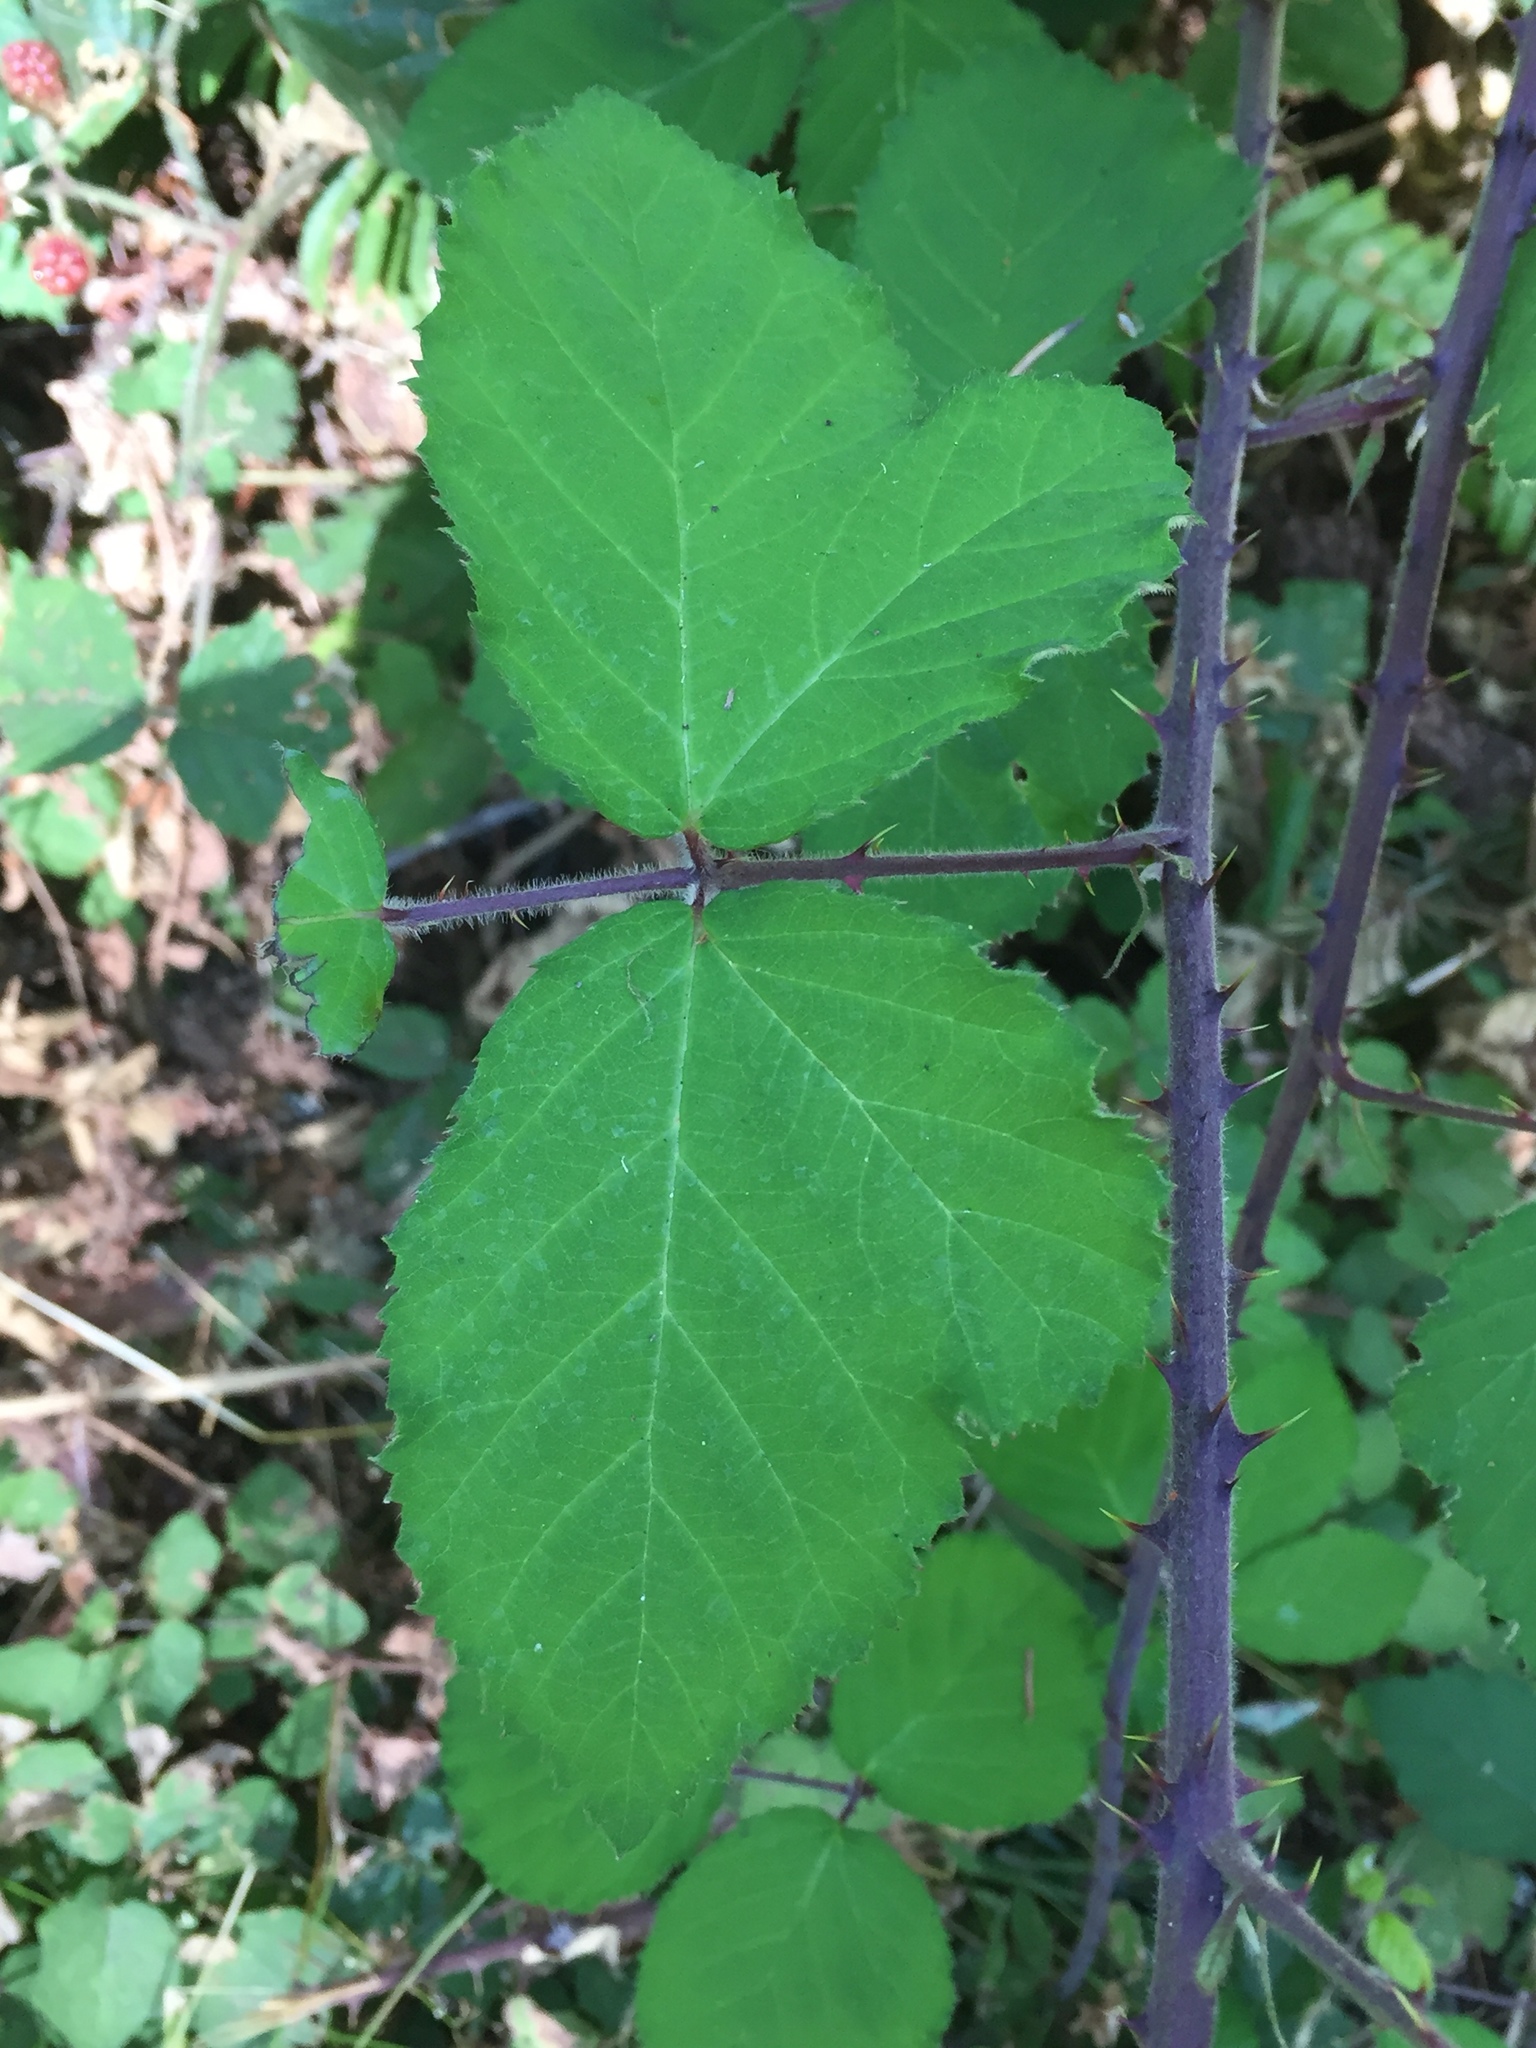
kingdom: Plantae
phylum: Tracheophyta
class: Magnoliopsida
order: Rosales
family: Rosaceae
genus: Rubus
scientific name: Rubus vestitus
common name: European blackberry
